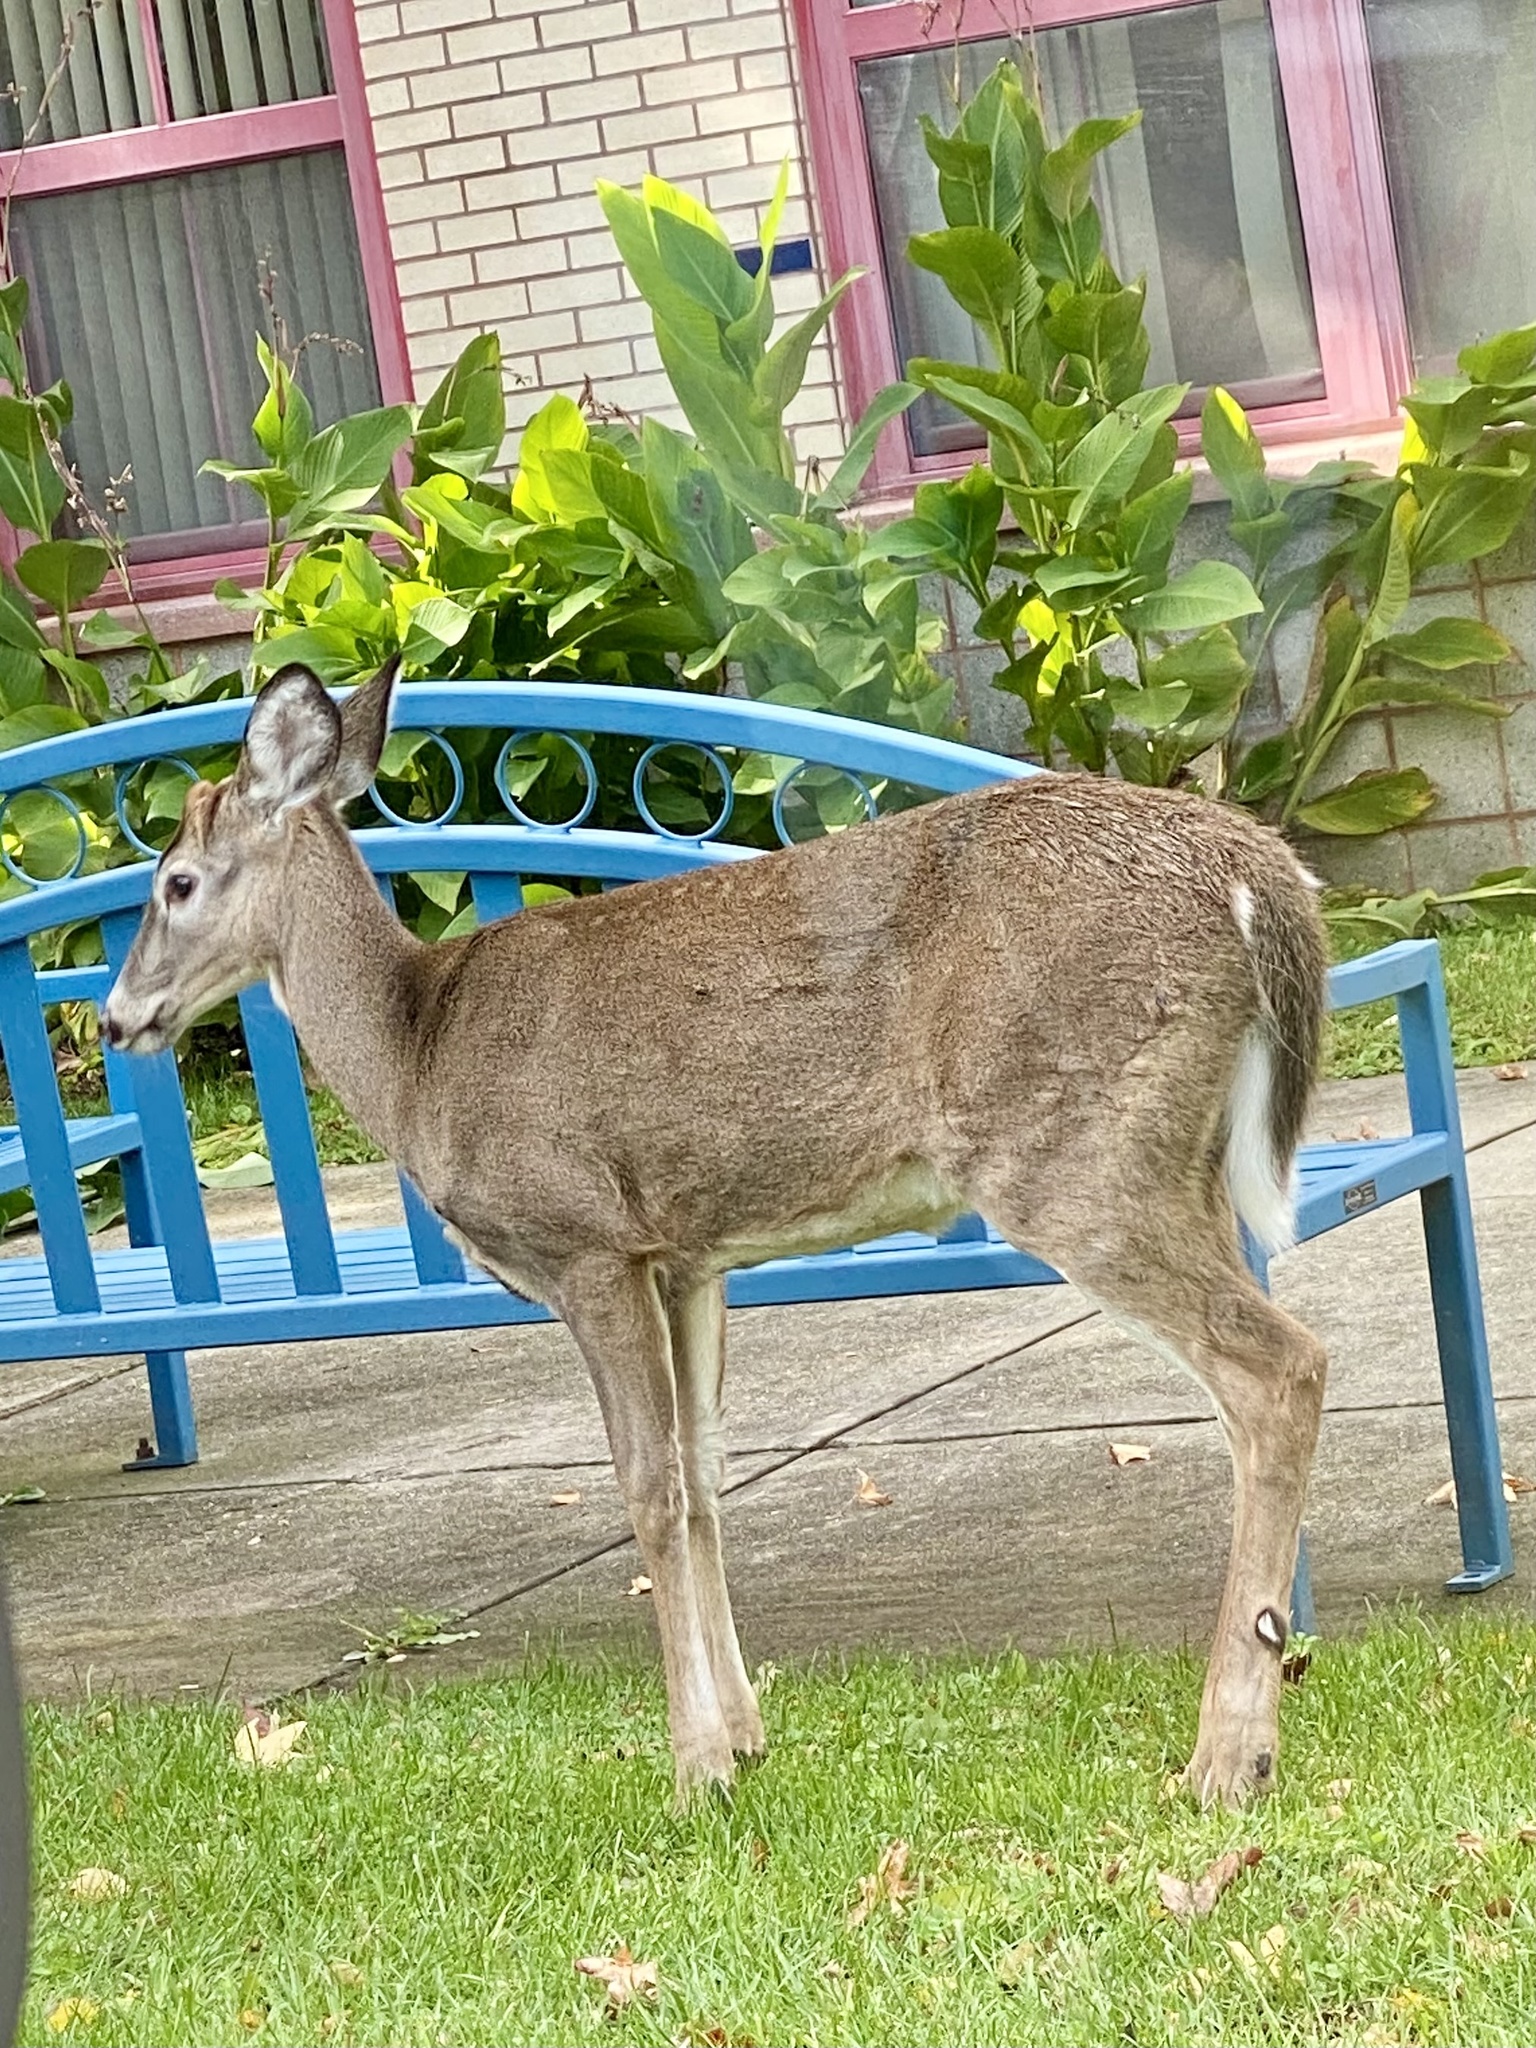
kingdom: Animalia
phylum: Chordata
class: Mammalia
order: Artiodactyla
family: Cervidae
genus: Odocoileus
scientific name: Odocoileus virginianus
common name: White-tailed deer
